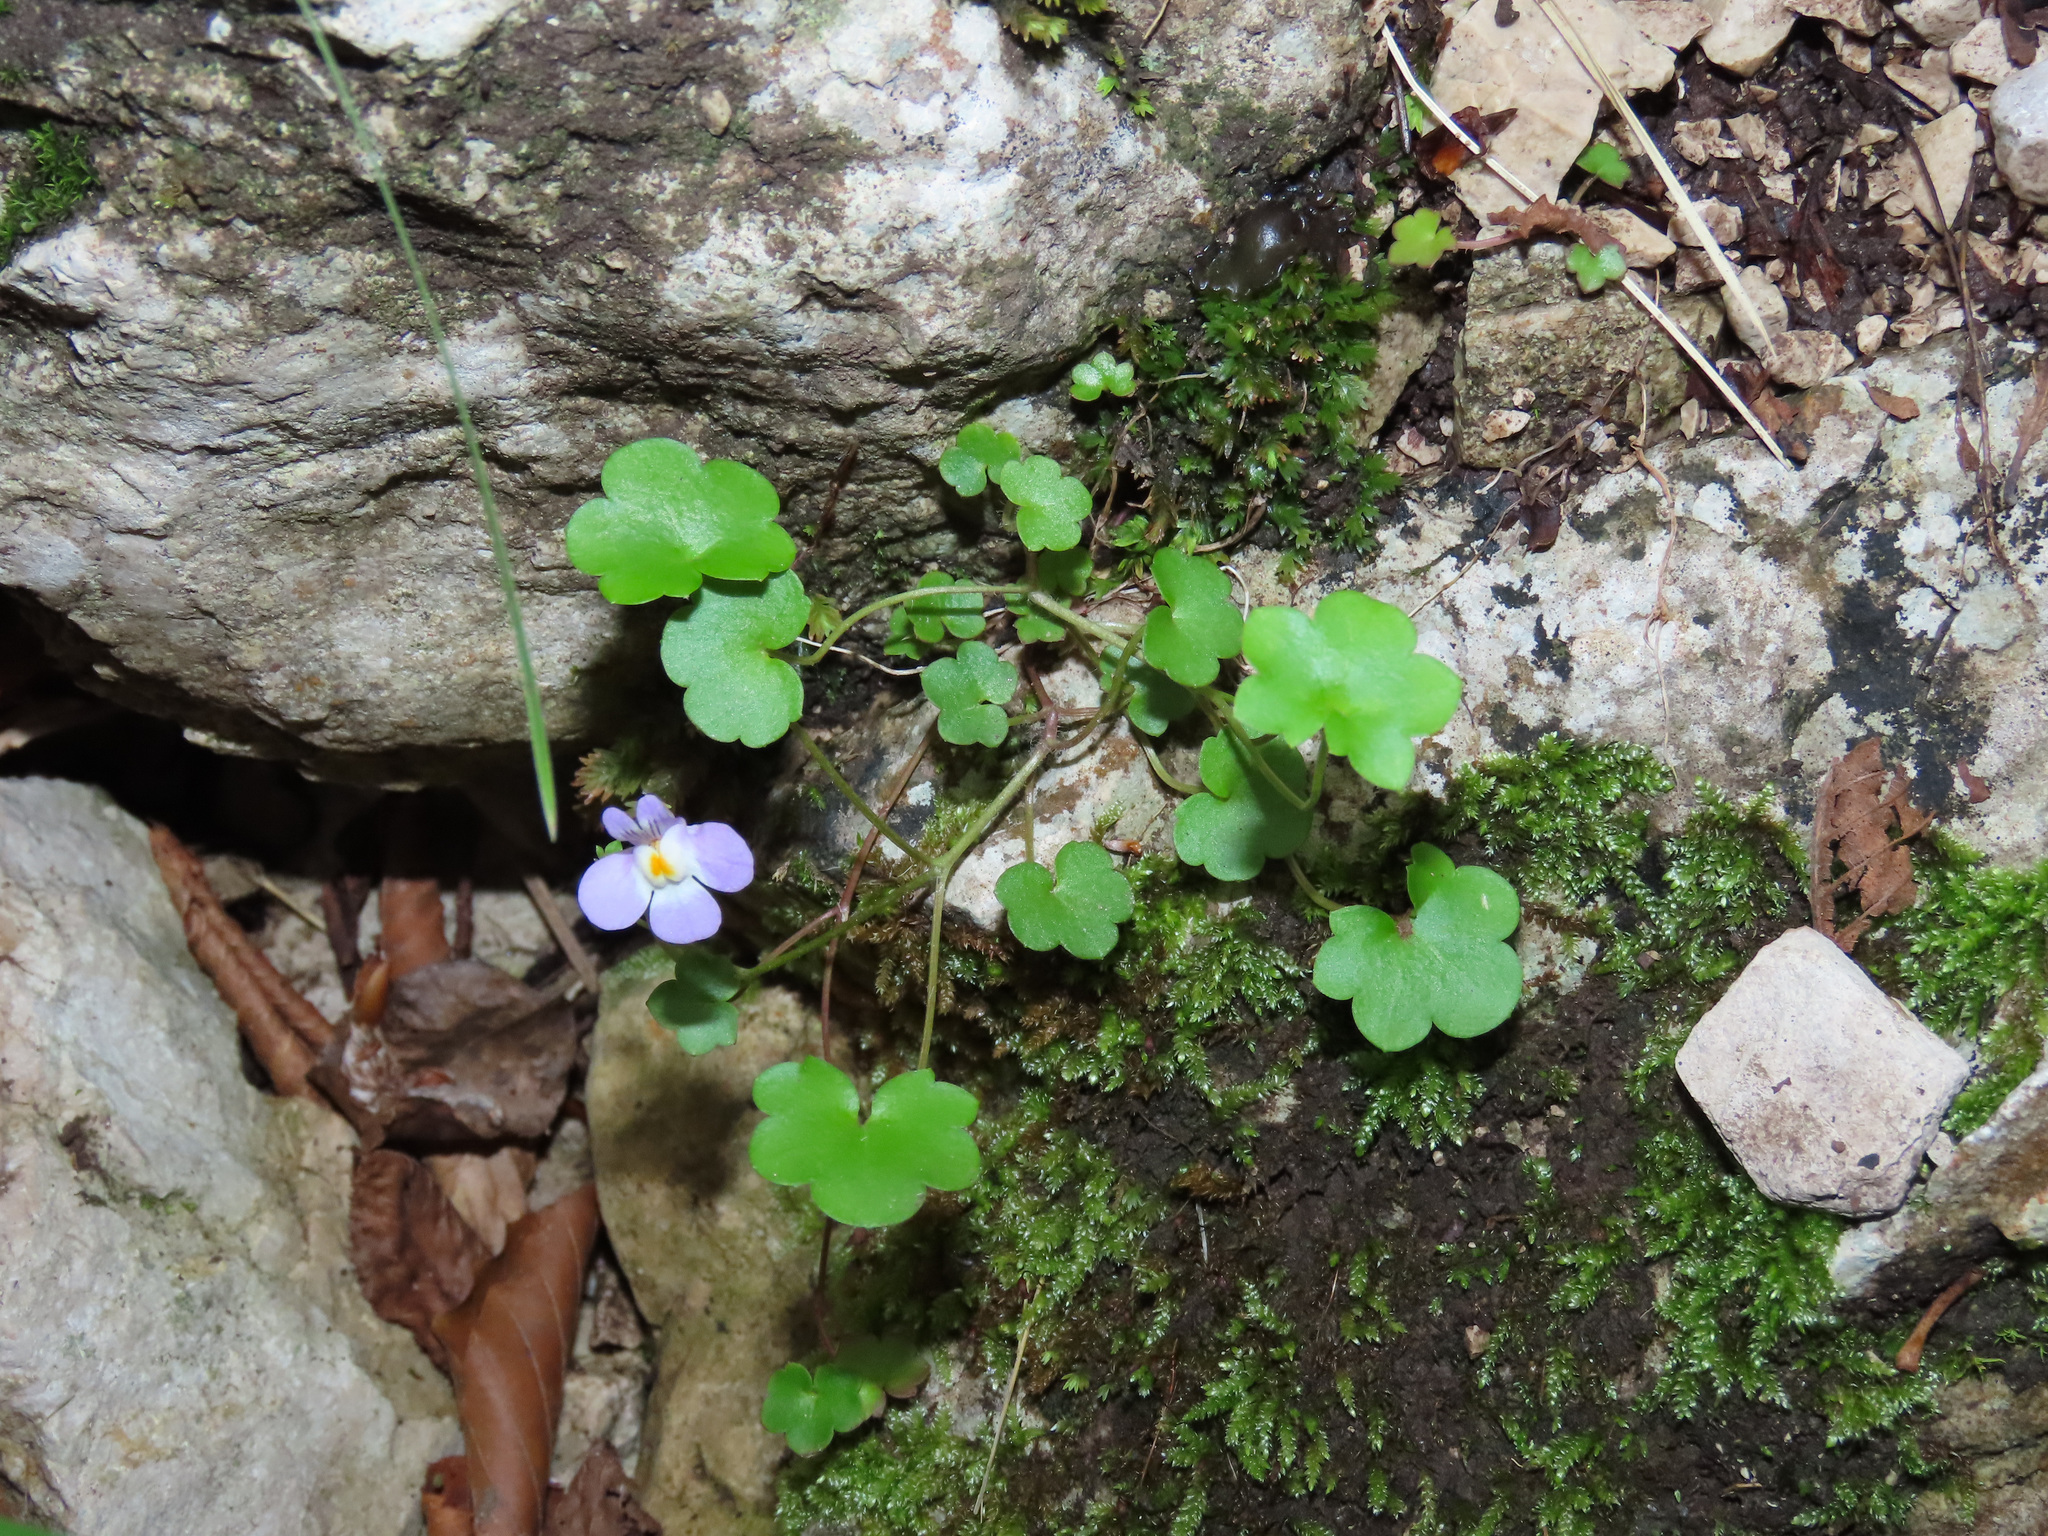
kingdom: Plantae
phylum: Tracheophyta
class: Magnoliopsida
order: Lamiales
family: Plantaginaceae
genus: Cymbalaria
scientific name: Cymbalaria muralis
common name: Ivy-leaved toadflax
